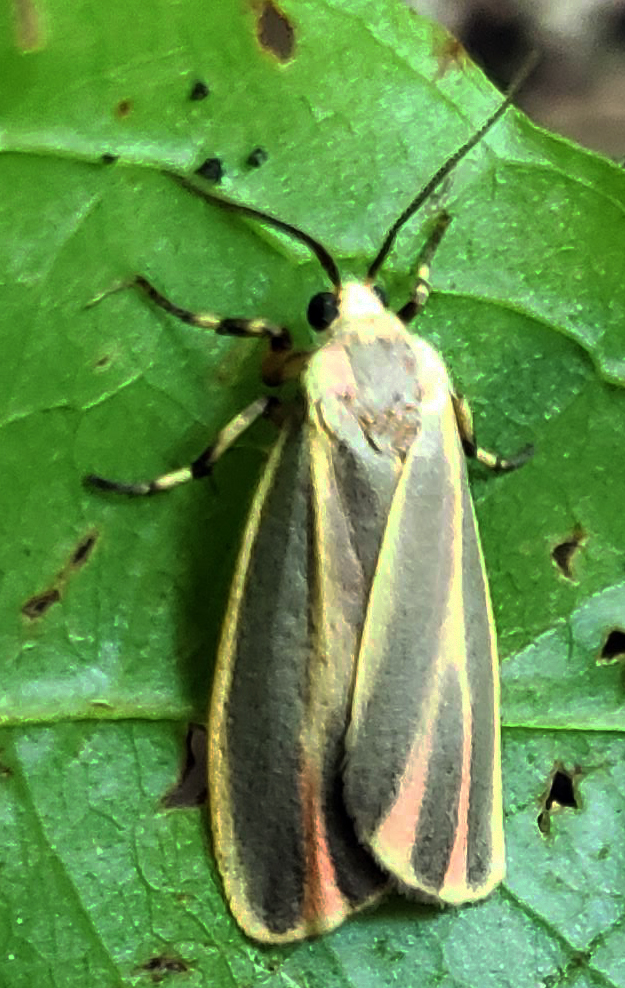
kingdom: Animalia
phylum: Arthropoda
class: Insecta
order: Lepidoptera
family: Erebidae
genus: Hypoprepia
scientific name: Hypoprepia fucosa
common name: Painted lichen moth
